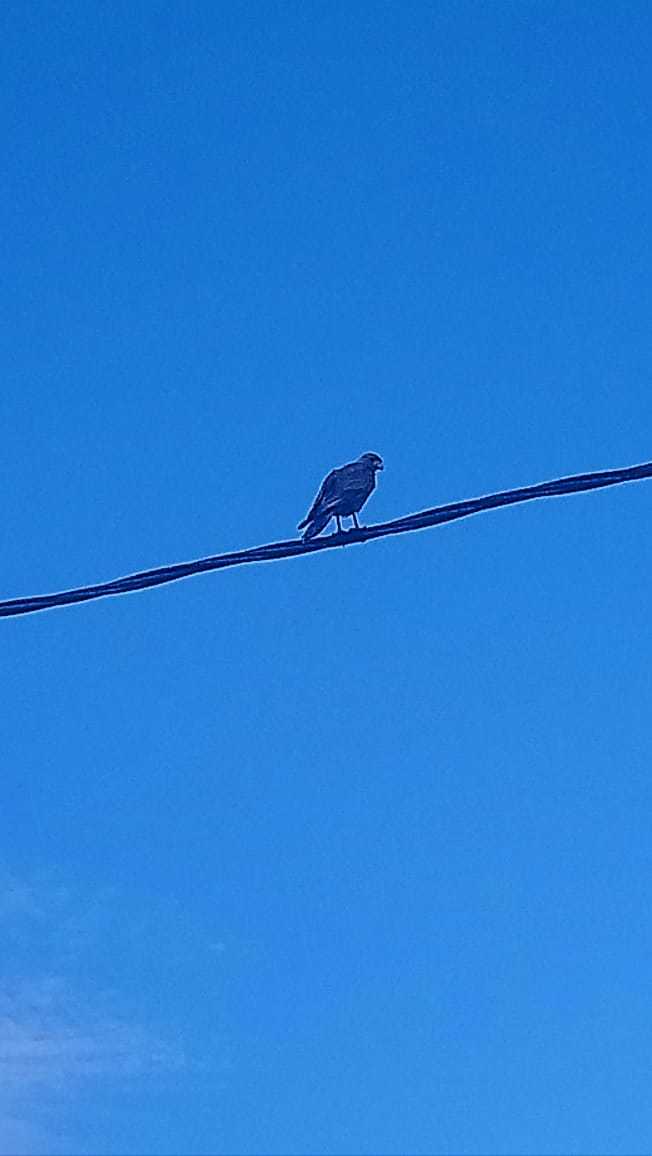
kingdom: Animalia
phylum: Chordata
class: Aves
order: Falconiformes
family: Falconidae
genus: Daptrius
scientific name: Daptrius
